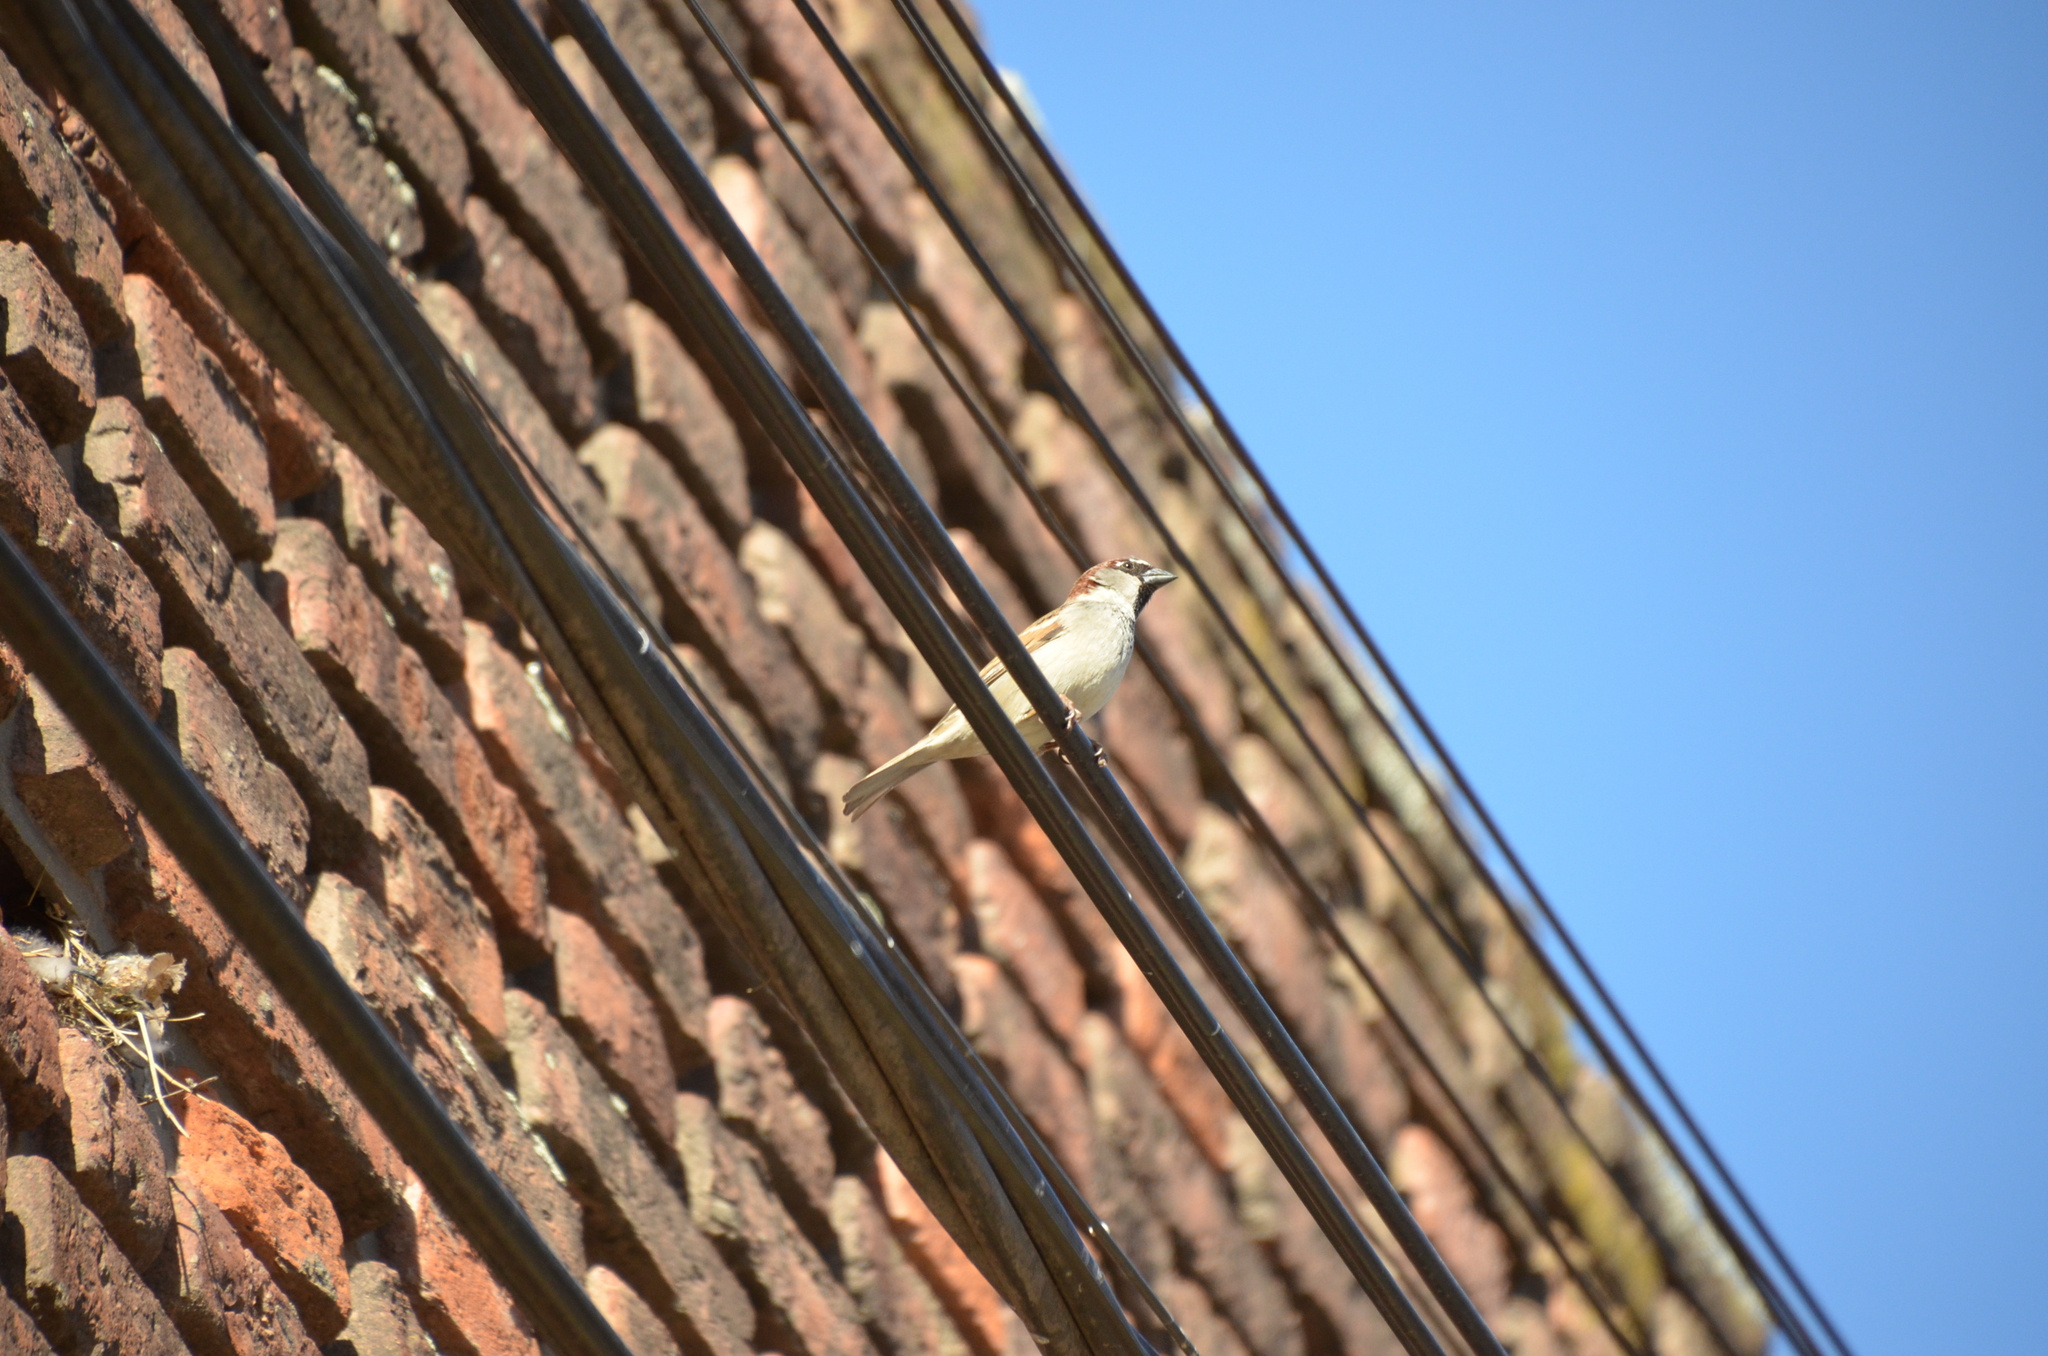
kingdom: Animalia
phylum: Chordata
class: Aves
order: Passeriformes
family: Passeridae
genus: Passer
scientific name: Passer domesticus
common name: House sparrow
